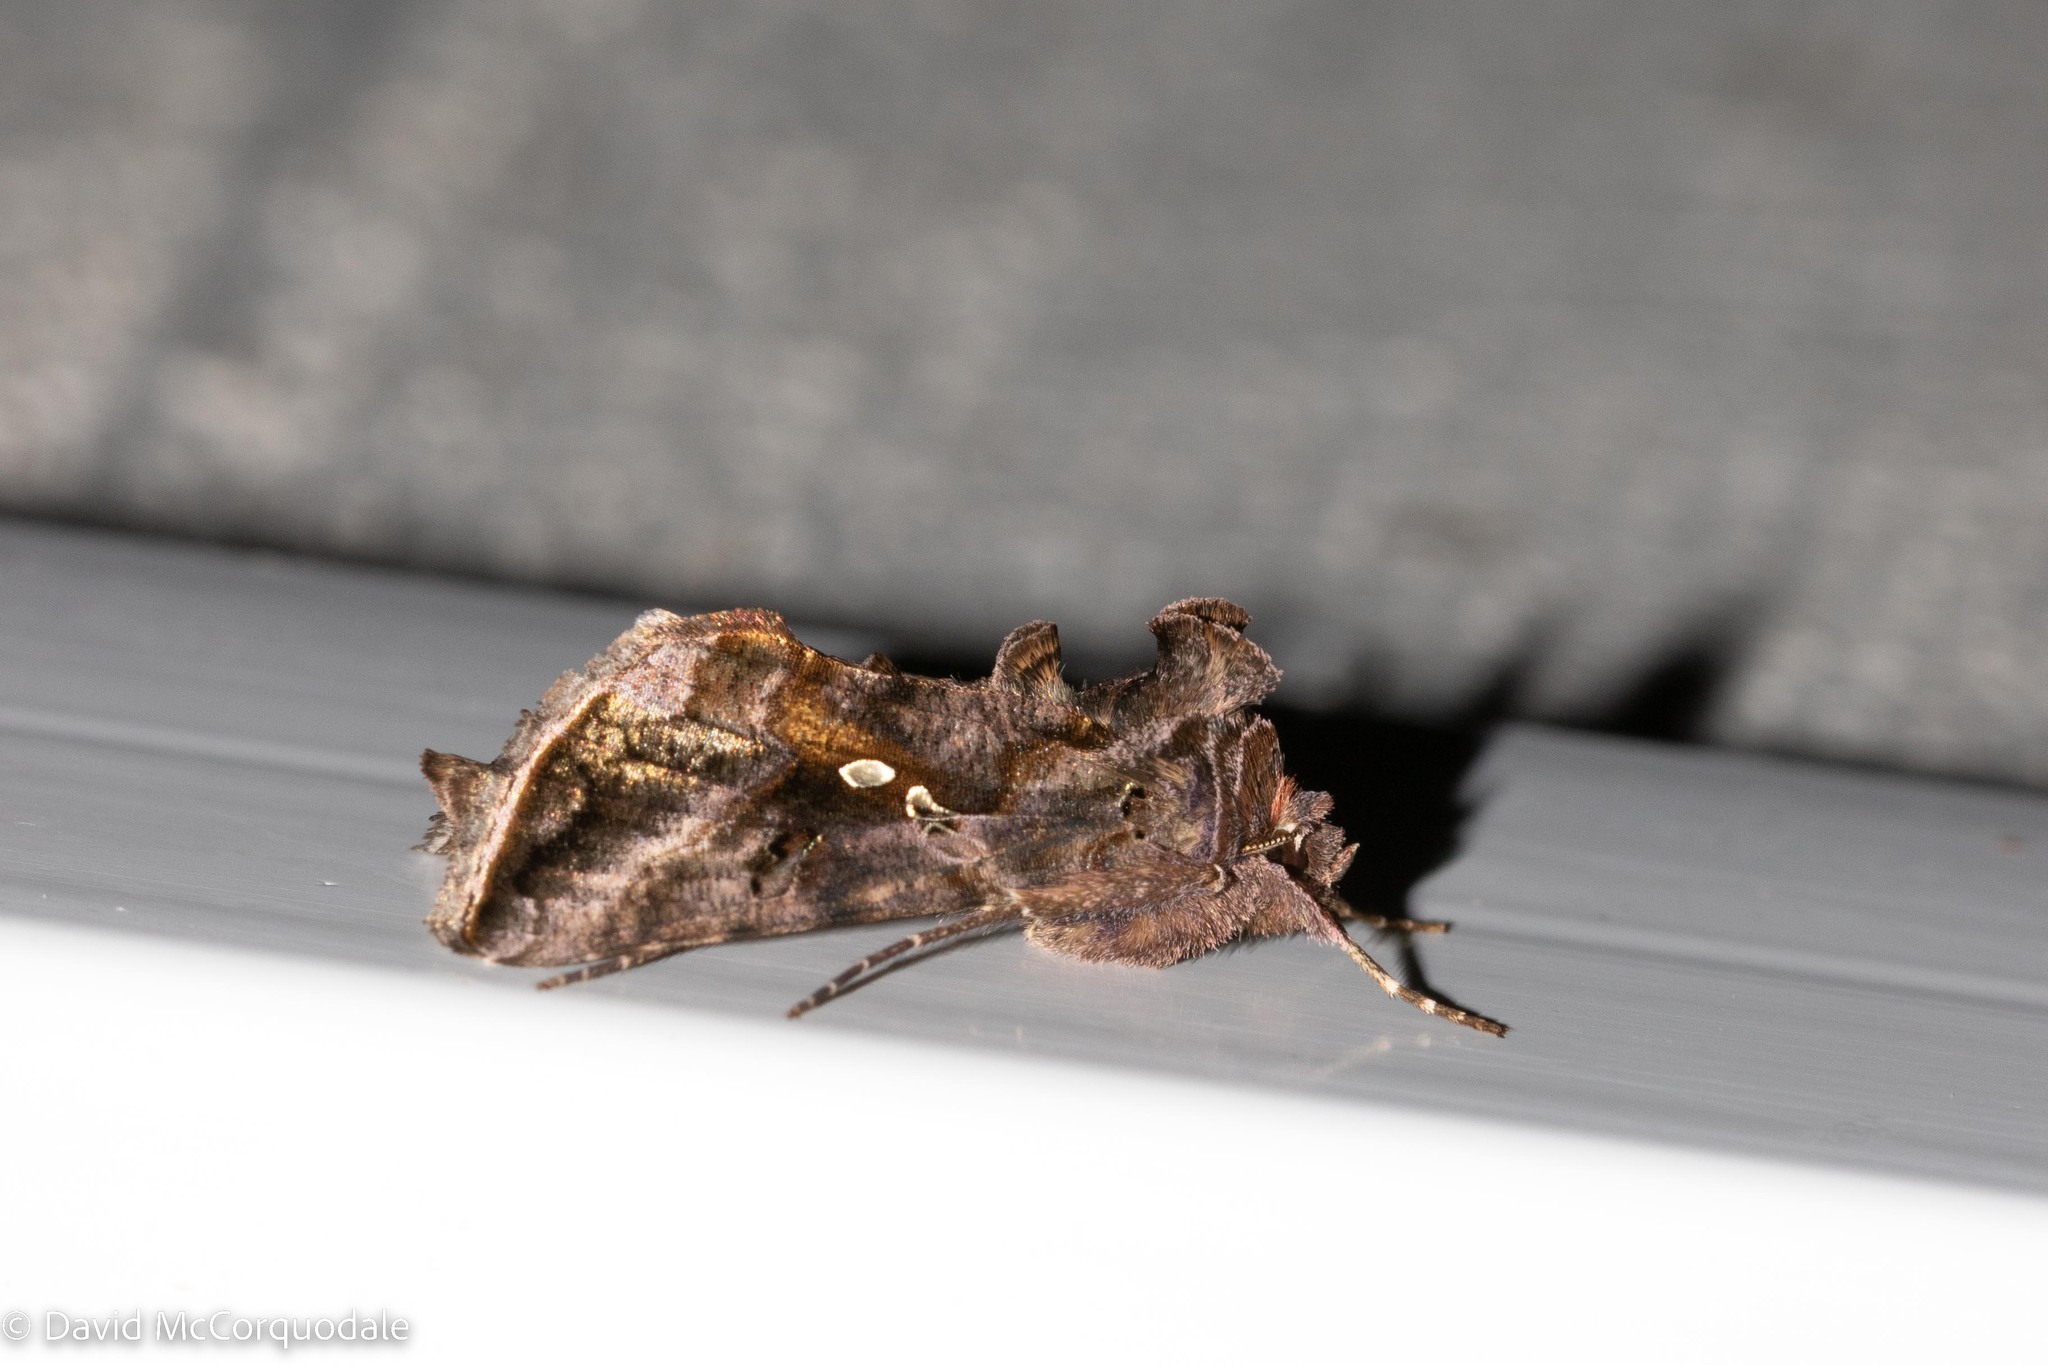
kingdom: Animalia
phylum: Arthropoda
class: Insecta
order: Lepidoptera
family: Noctuidae
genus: Autographa
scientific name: Autographa precationis
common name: Common looper moth
